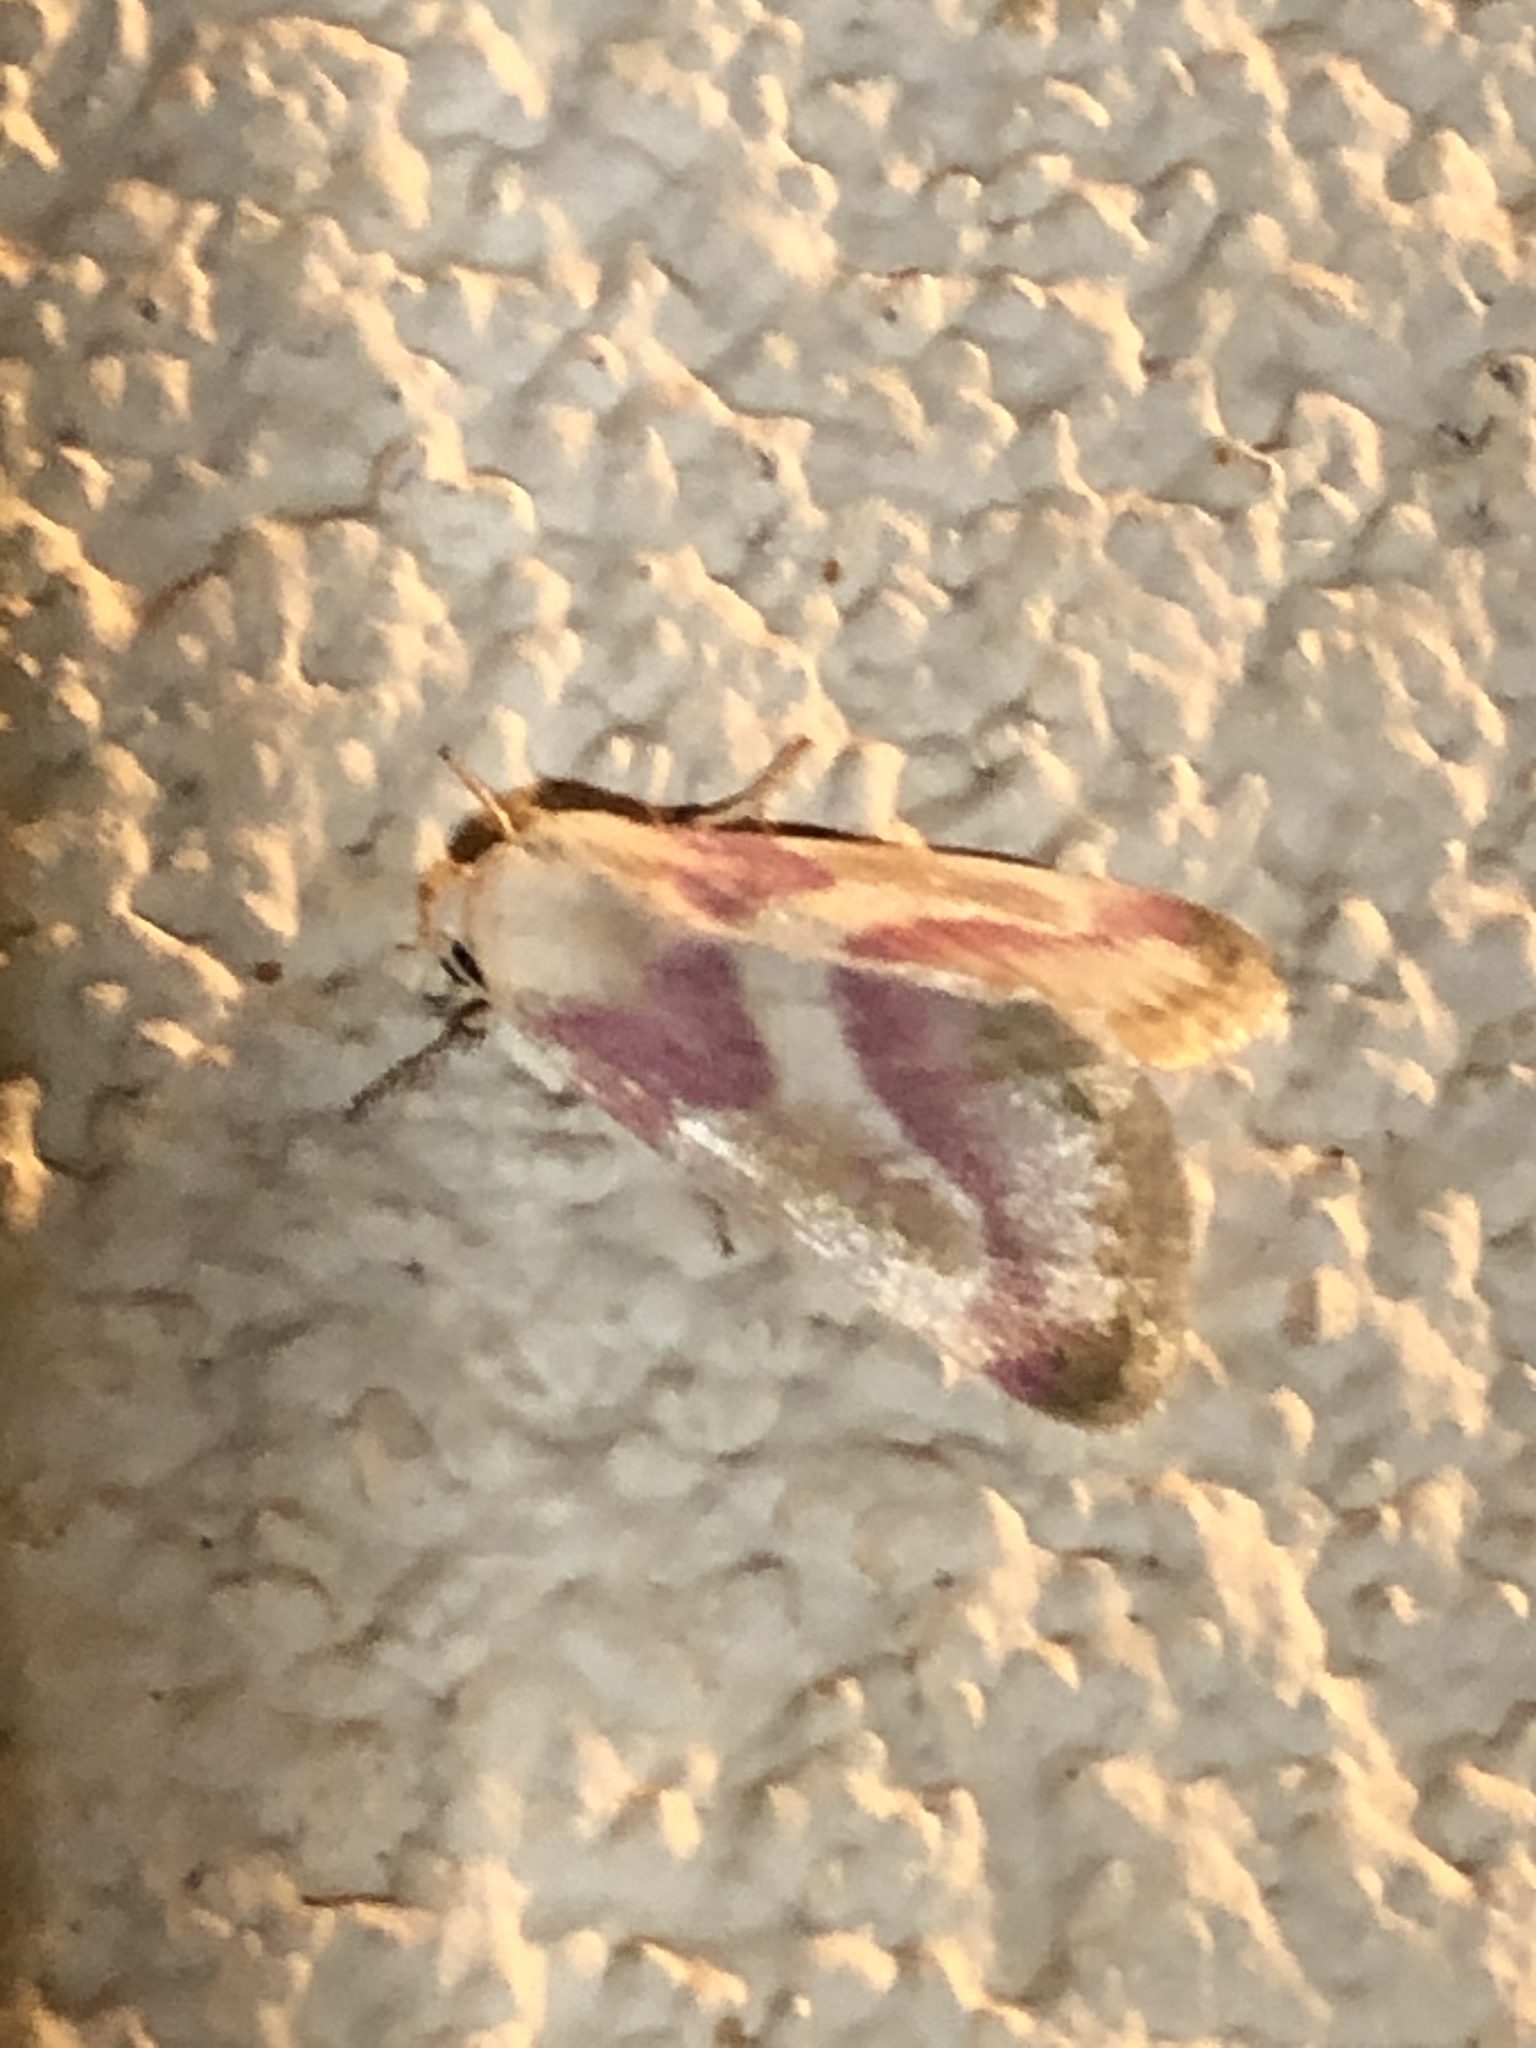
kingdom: Animalia
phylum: Arthropoda
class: Insecta
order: Lepidoptera
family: Noctuidae
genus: Schinia
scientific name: Schinia regina
